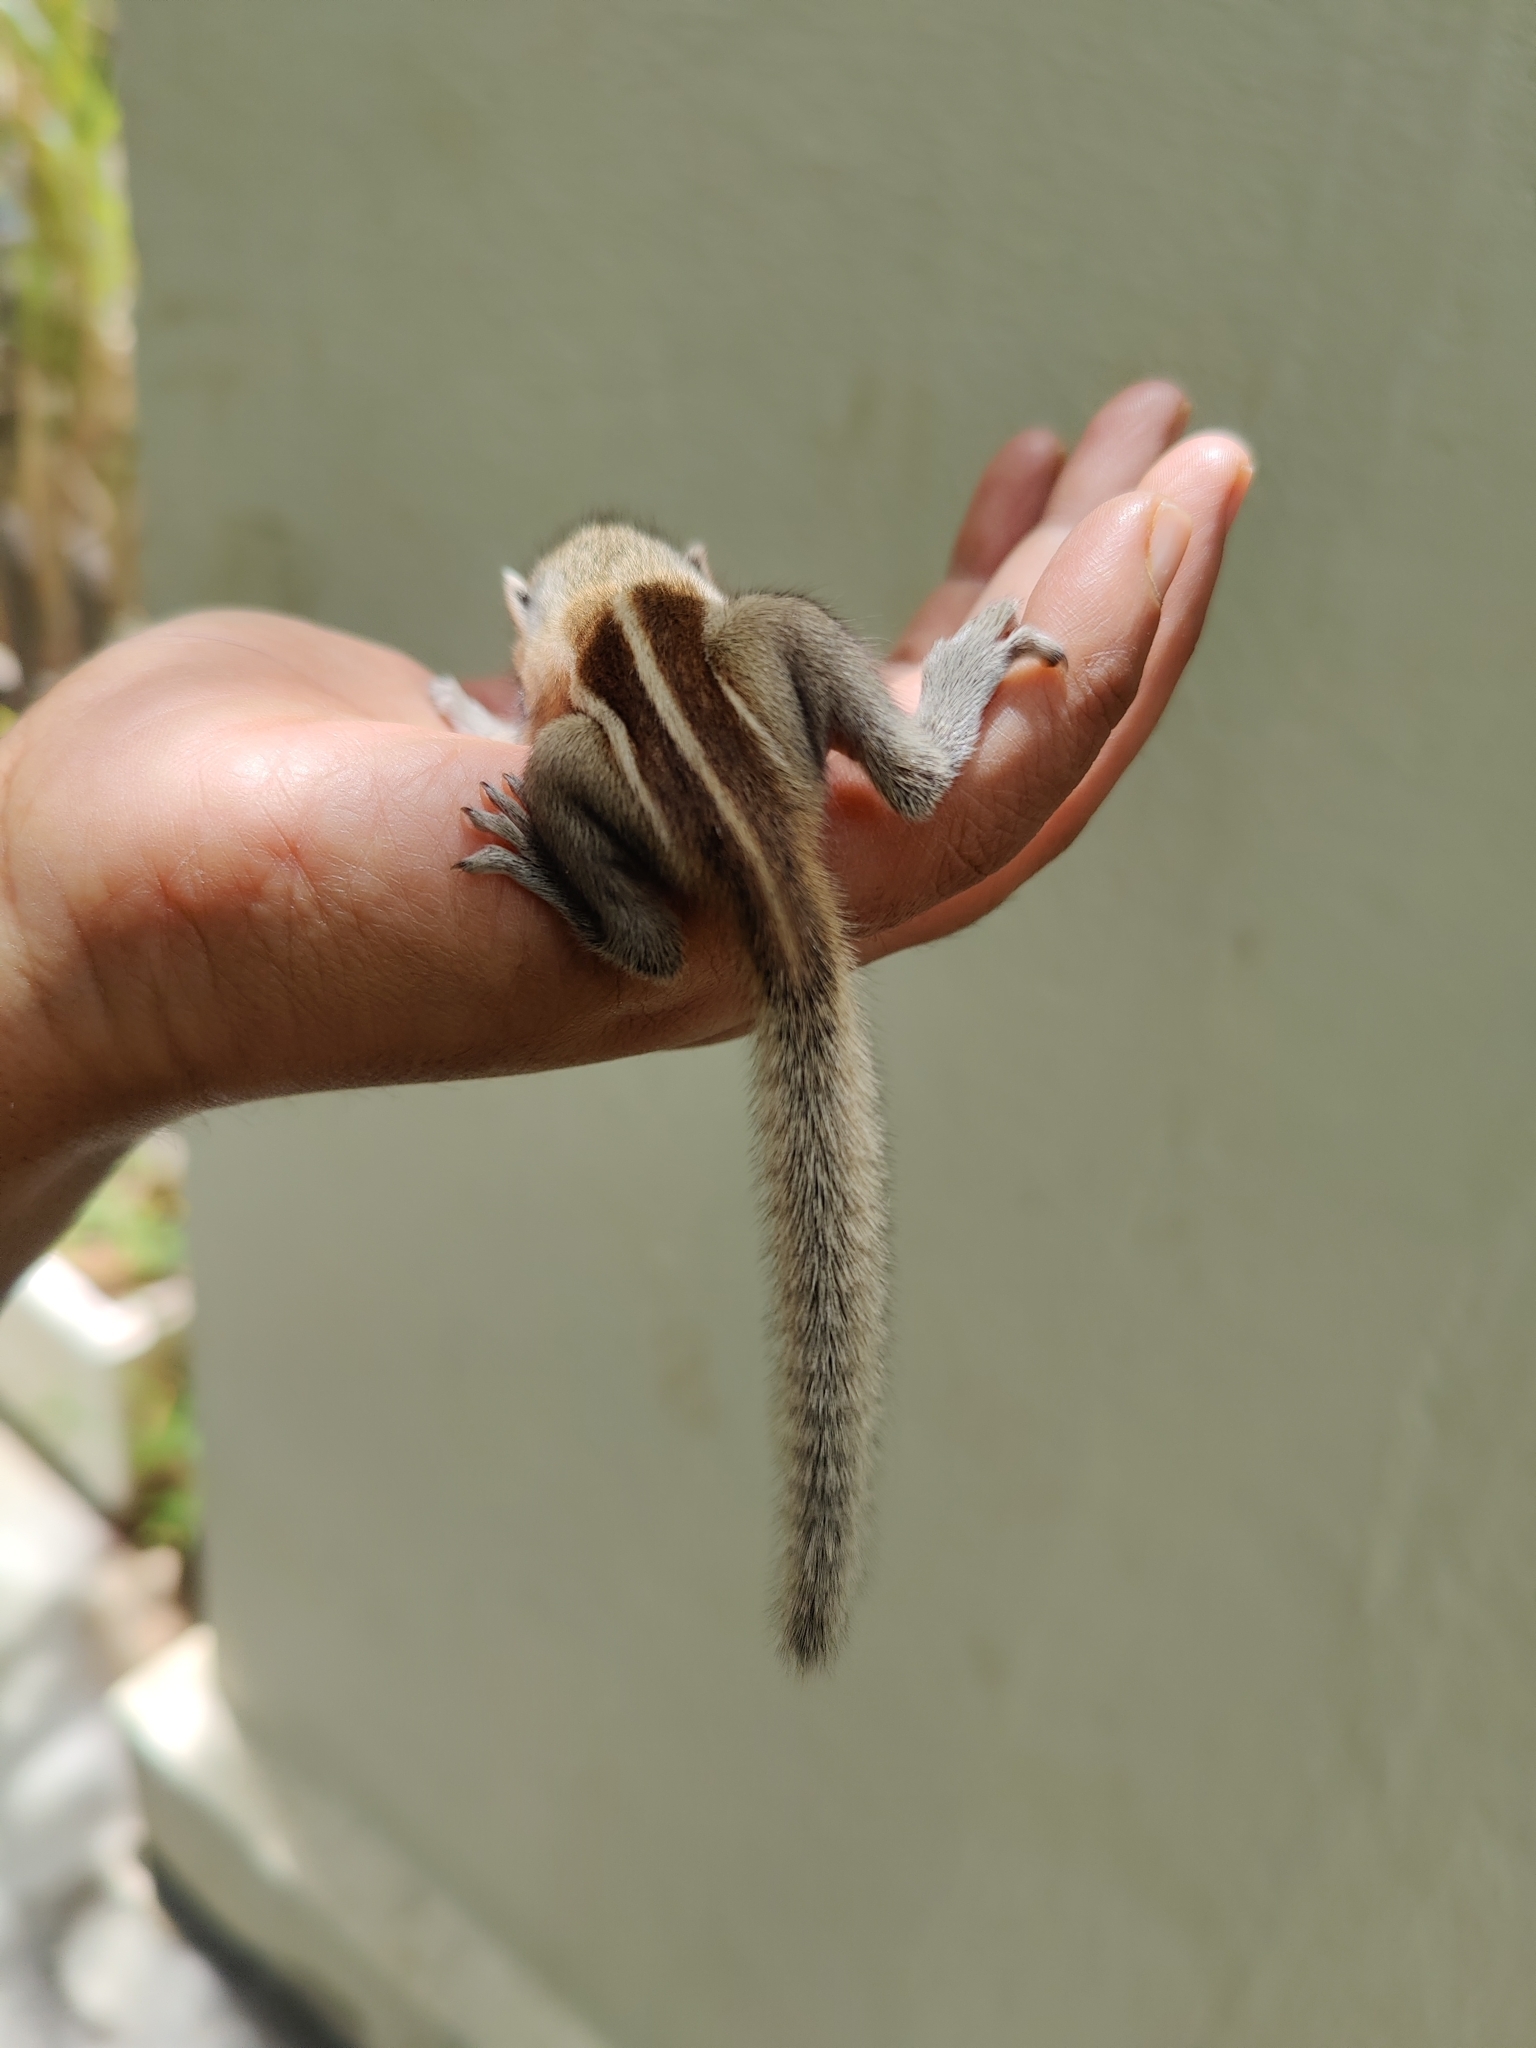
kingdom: Animalia
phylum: Chordata
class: Mammalia
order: Rodentia
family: Sciuridae
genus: Funambulus
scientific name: Funambulus palmarum
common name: Indian palm squirrel
